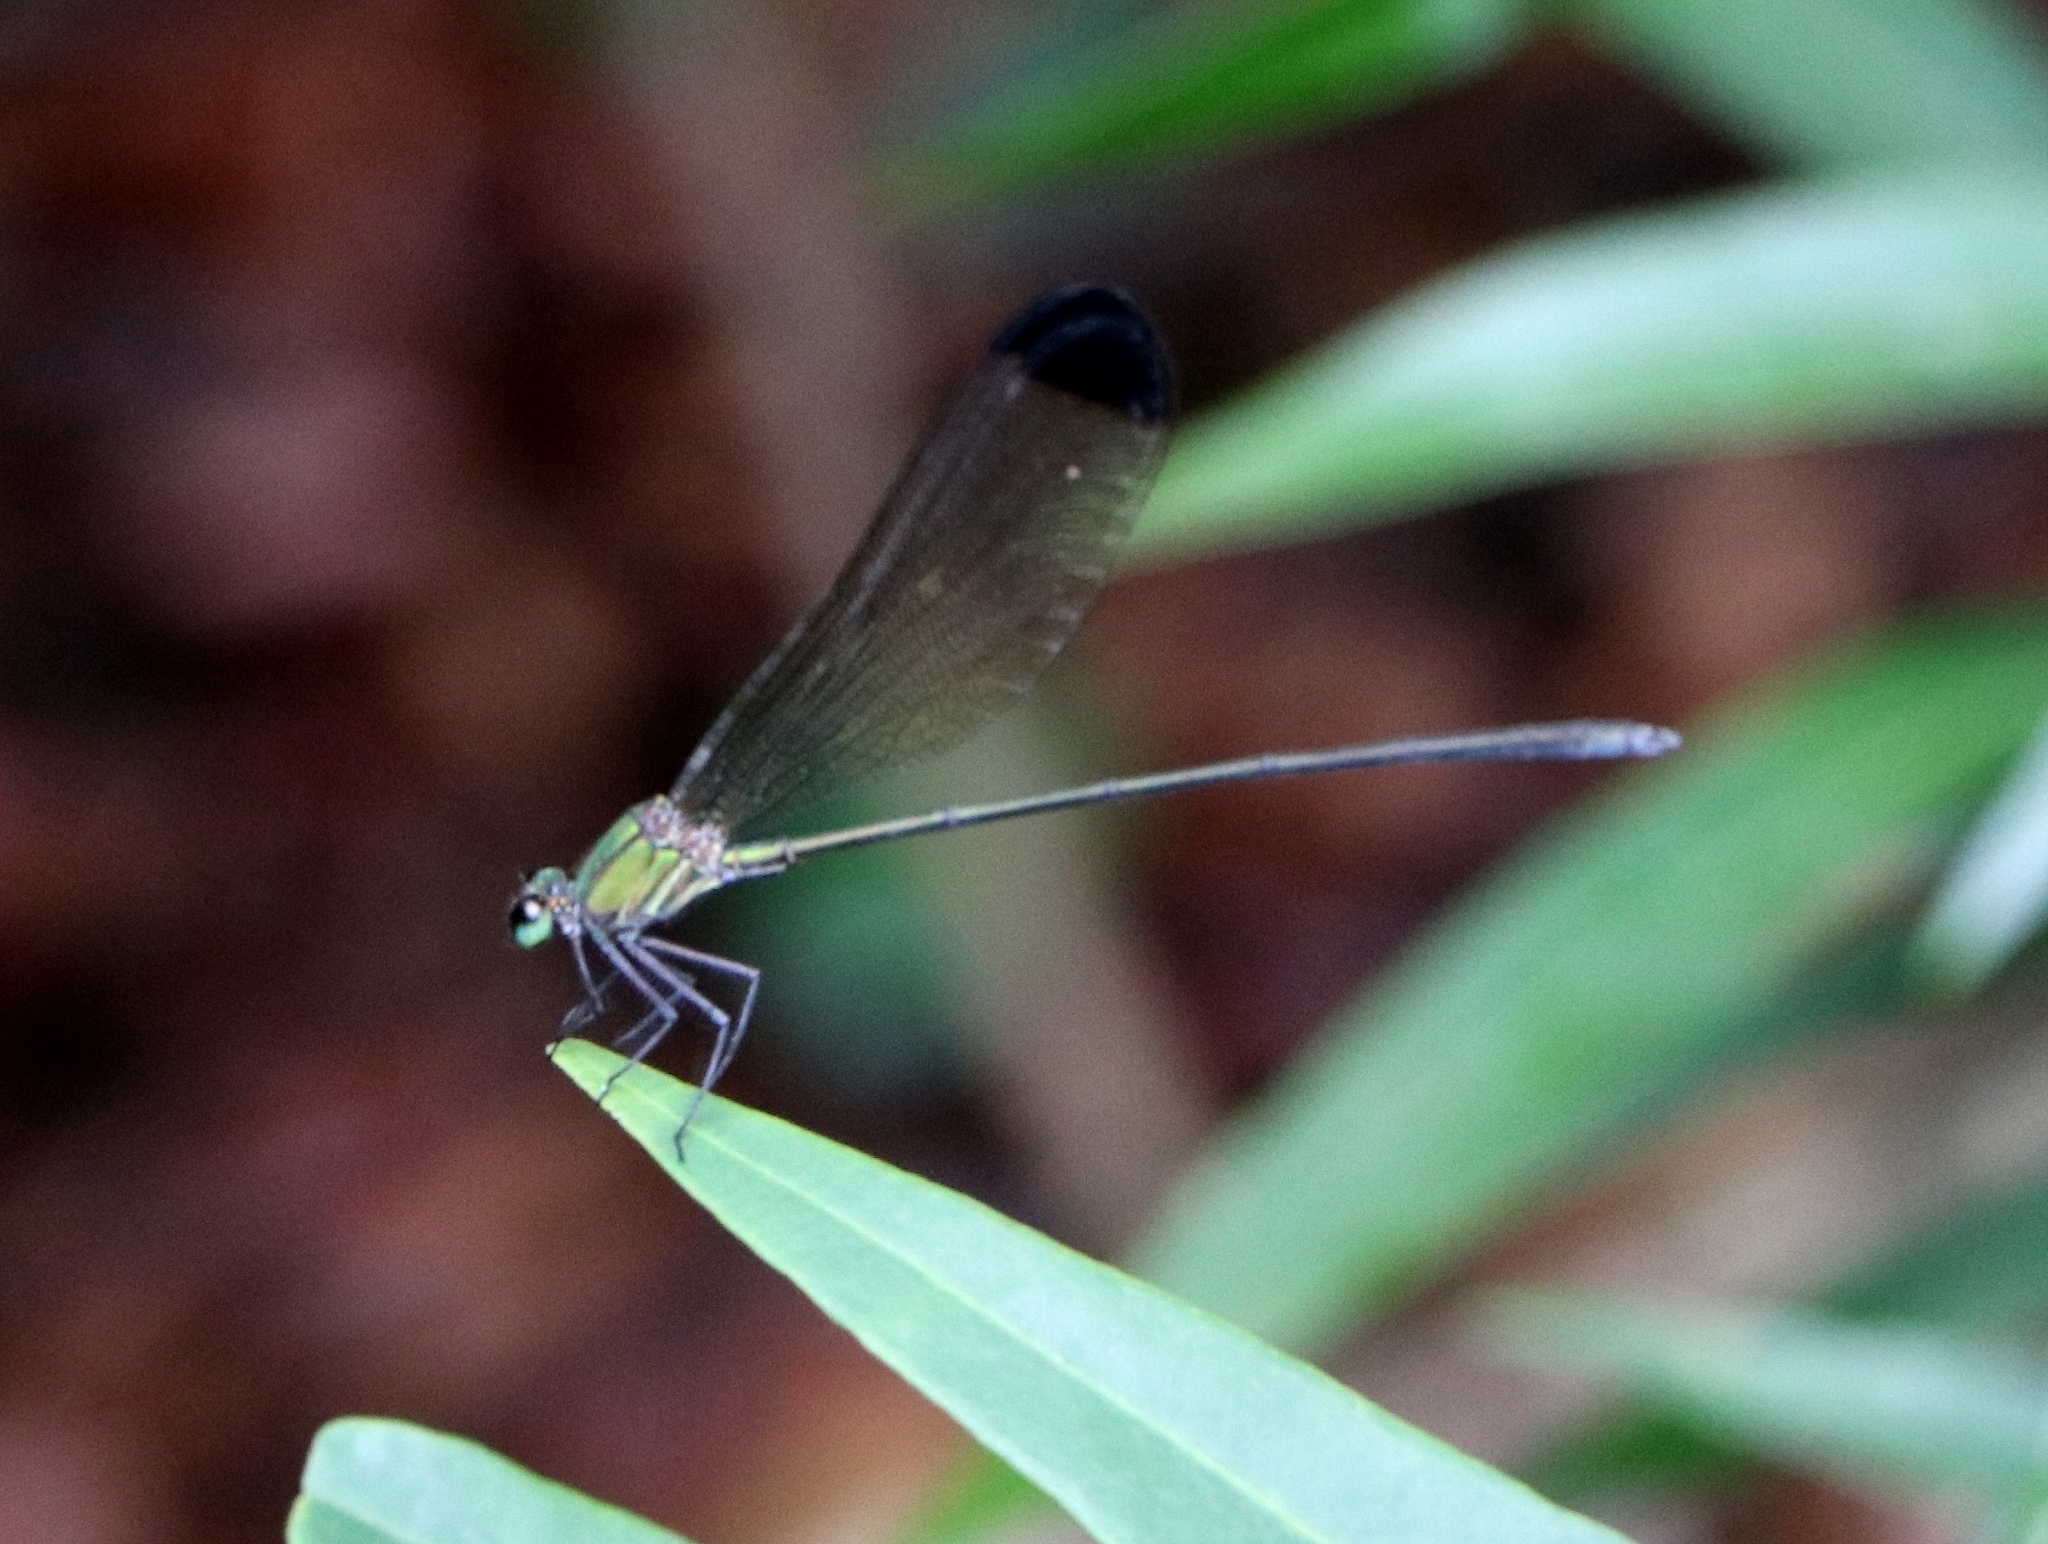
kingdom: Animalia
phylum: Arthropoda
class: Insecta
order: Odonata
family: Calopterygidae
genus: Vestalis
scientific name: Vestalis apicalis
